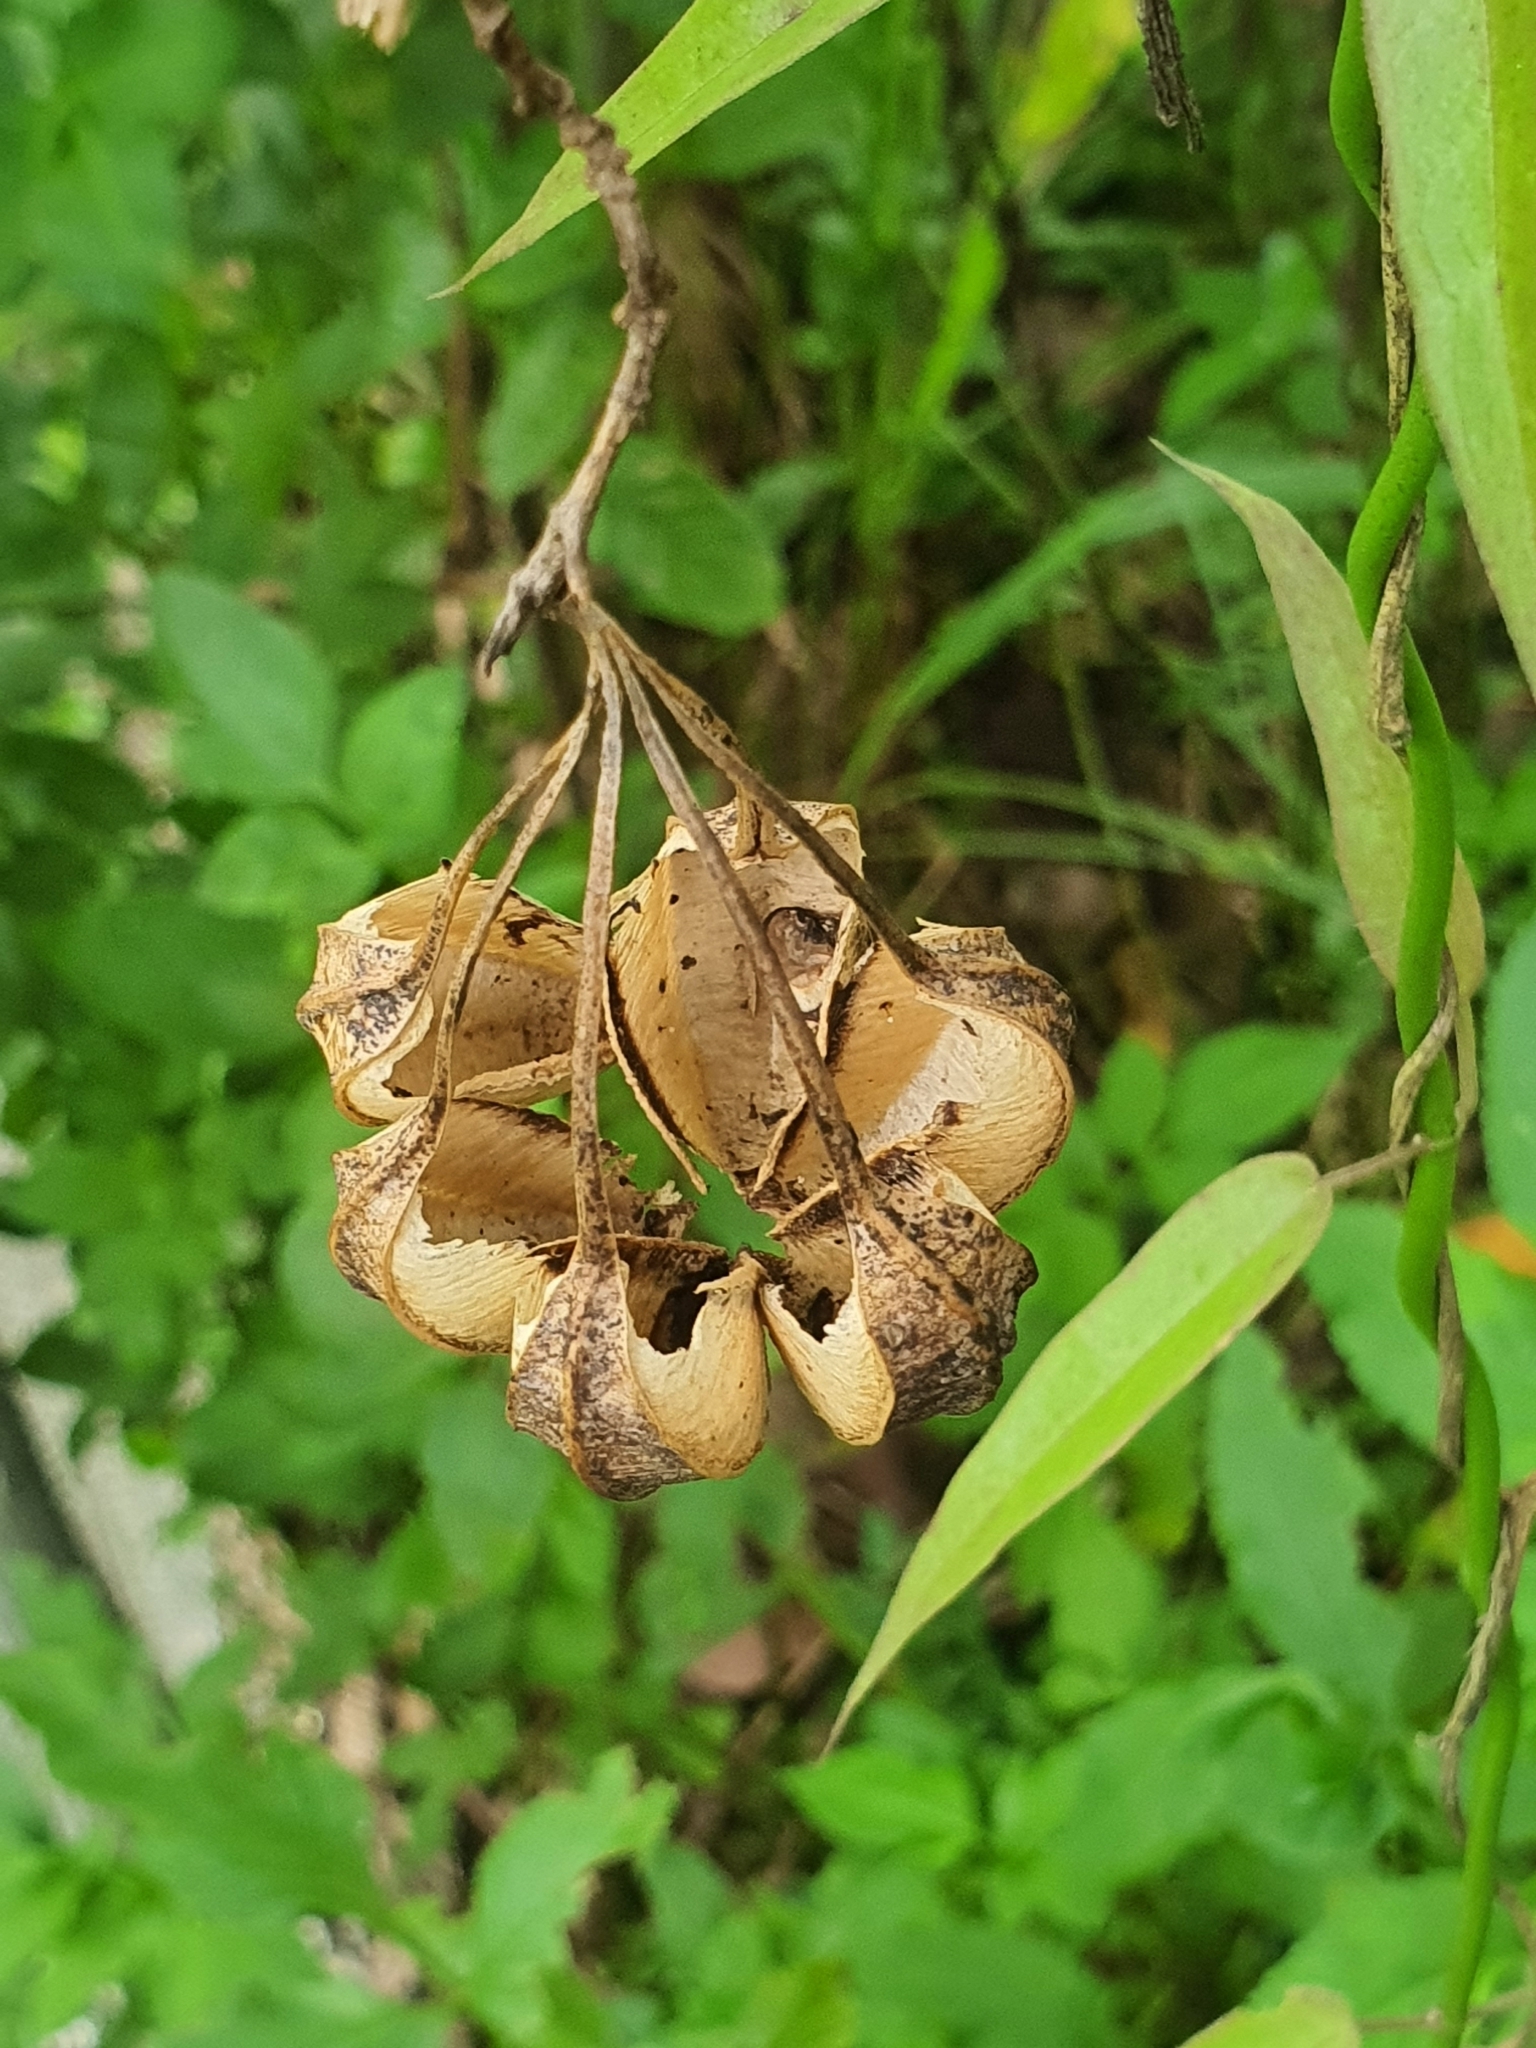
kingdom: Plantae
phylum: Tracheophyta
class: Magnoliopsida
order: Piperales
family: Aristolochiaceae
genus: Aristolochia
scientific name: Aristolochia acuminata
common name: Indian birthwort
